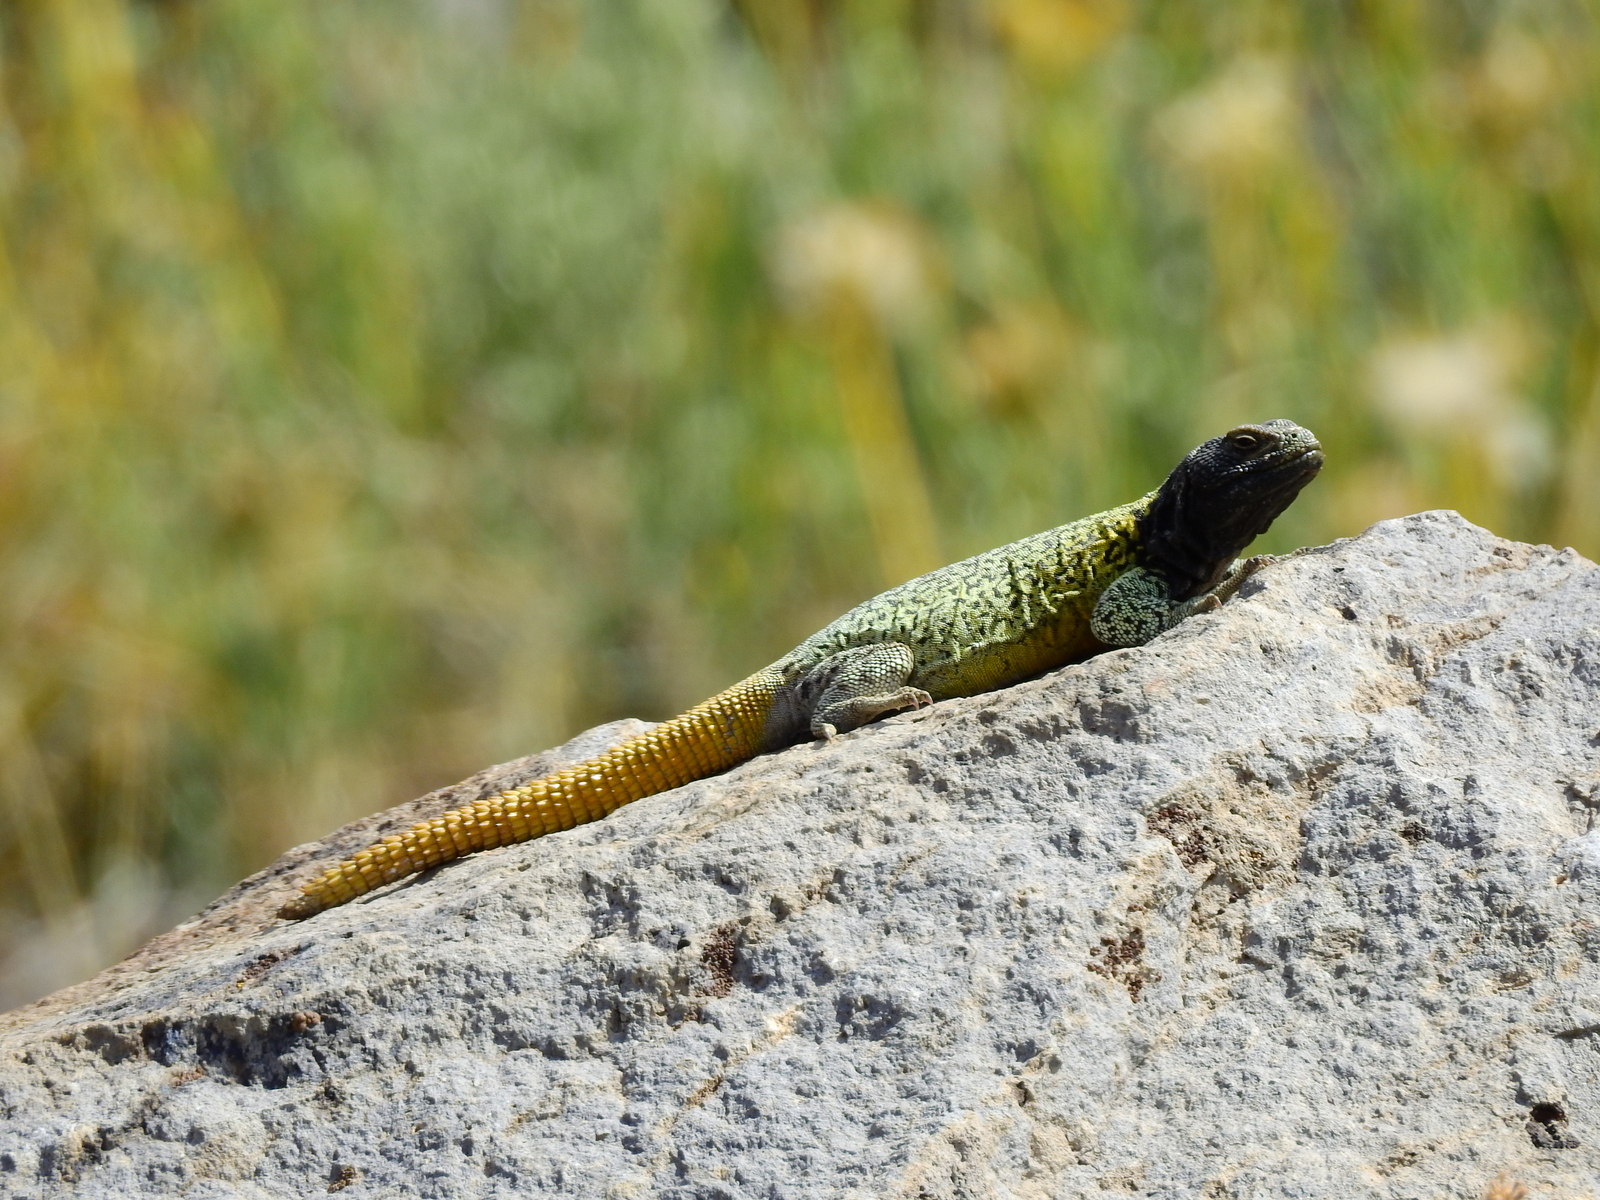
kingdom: Animalia
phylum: Chordata
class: Squamata
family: Liolaemidae
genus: Phymaturus
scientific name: Phymaturus verdugo
